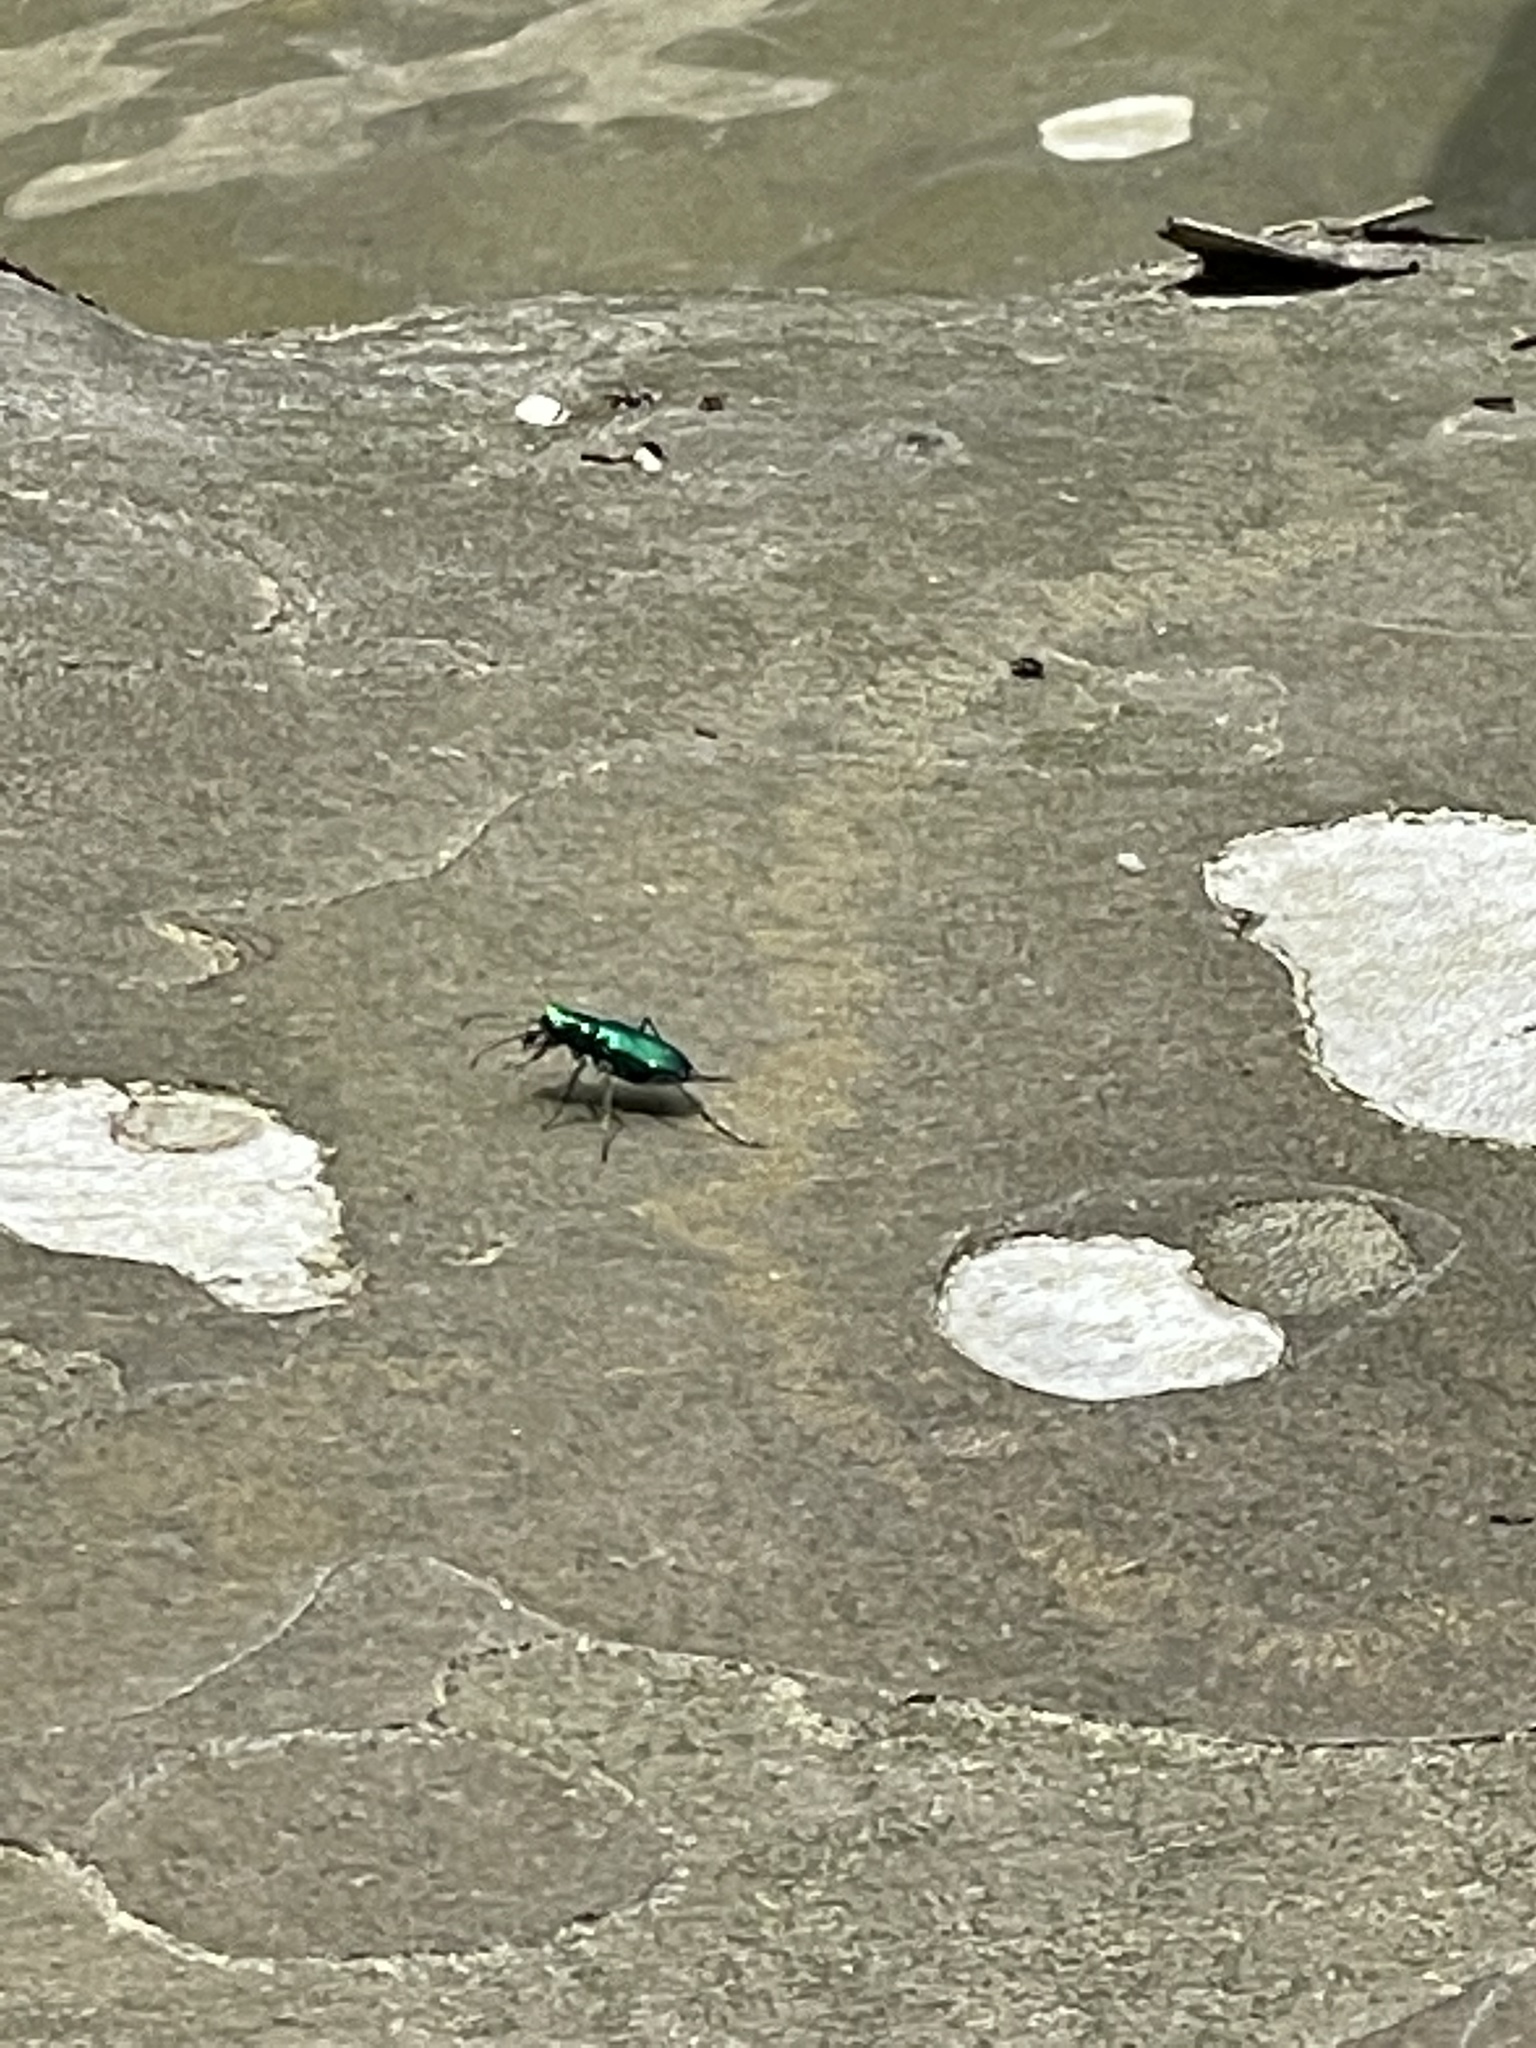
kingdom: Animalia
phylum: Arthropoda
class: Insecta
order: Coleoptera
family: Carabidae
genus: Cicindela
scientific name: Cicindela sexguttata
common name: Six-spotted tiger beetle
